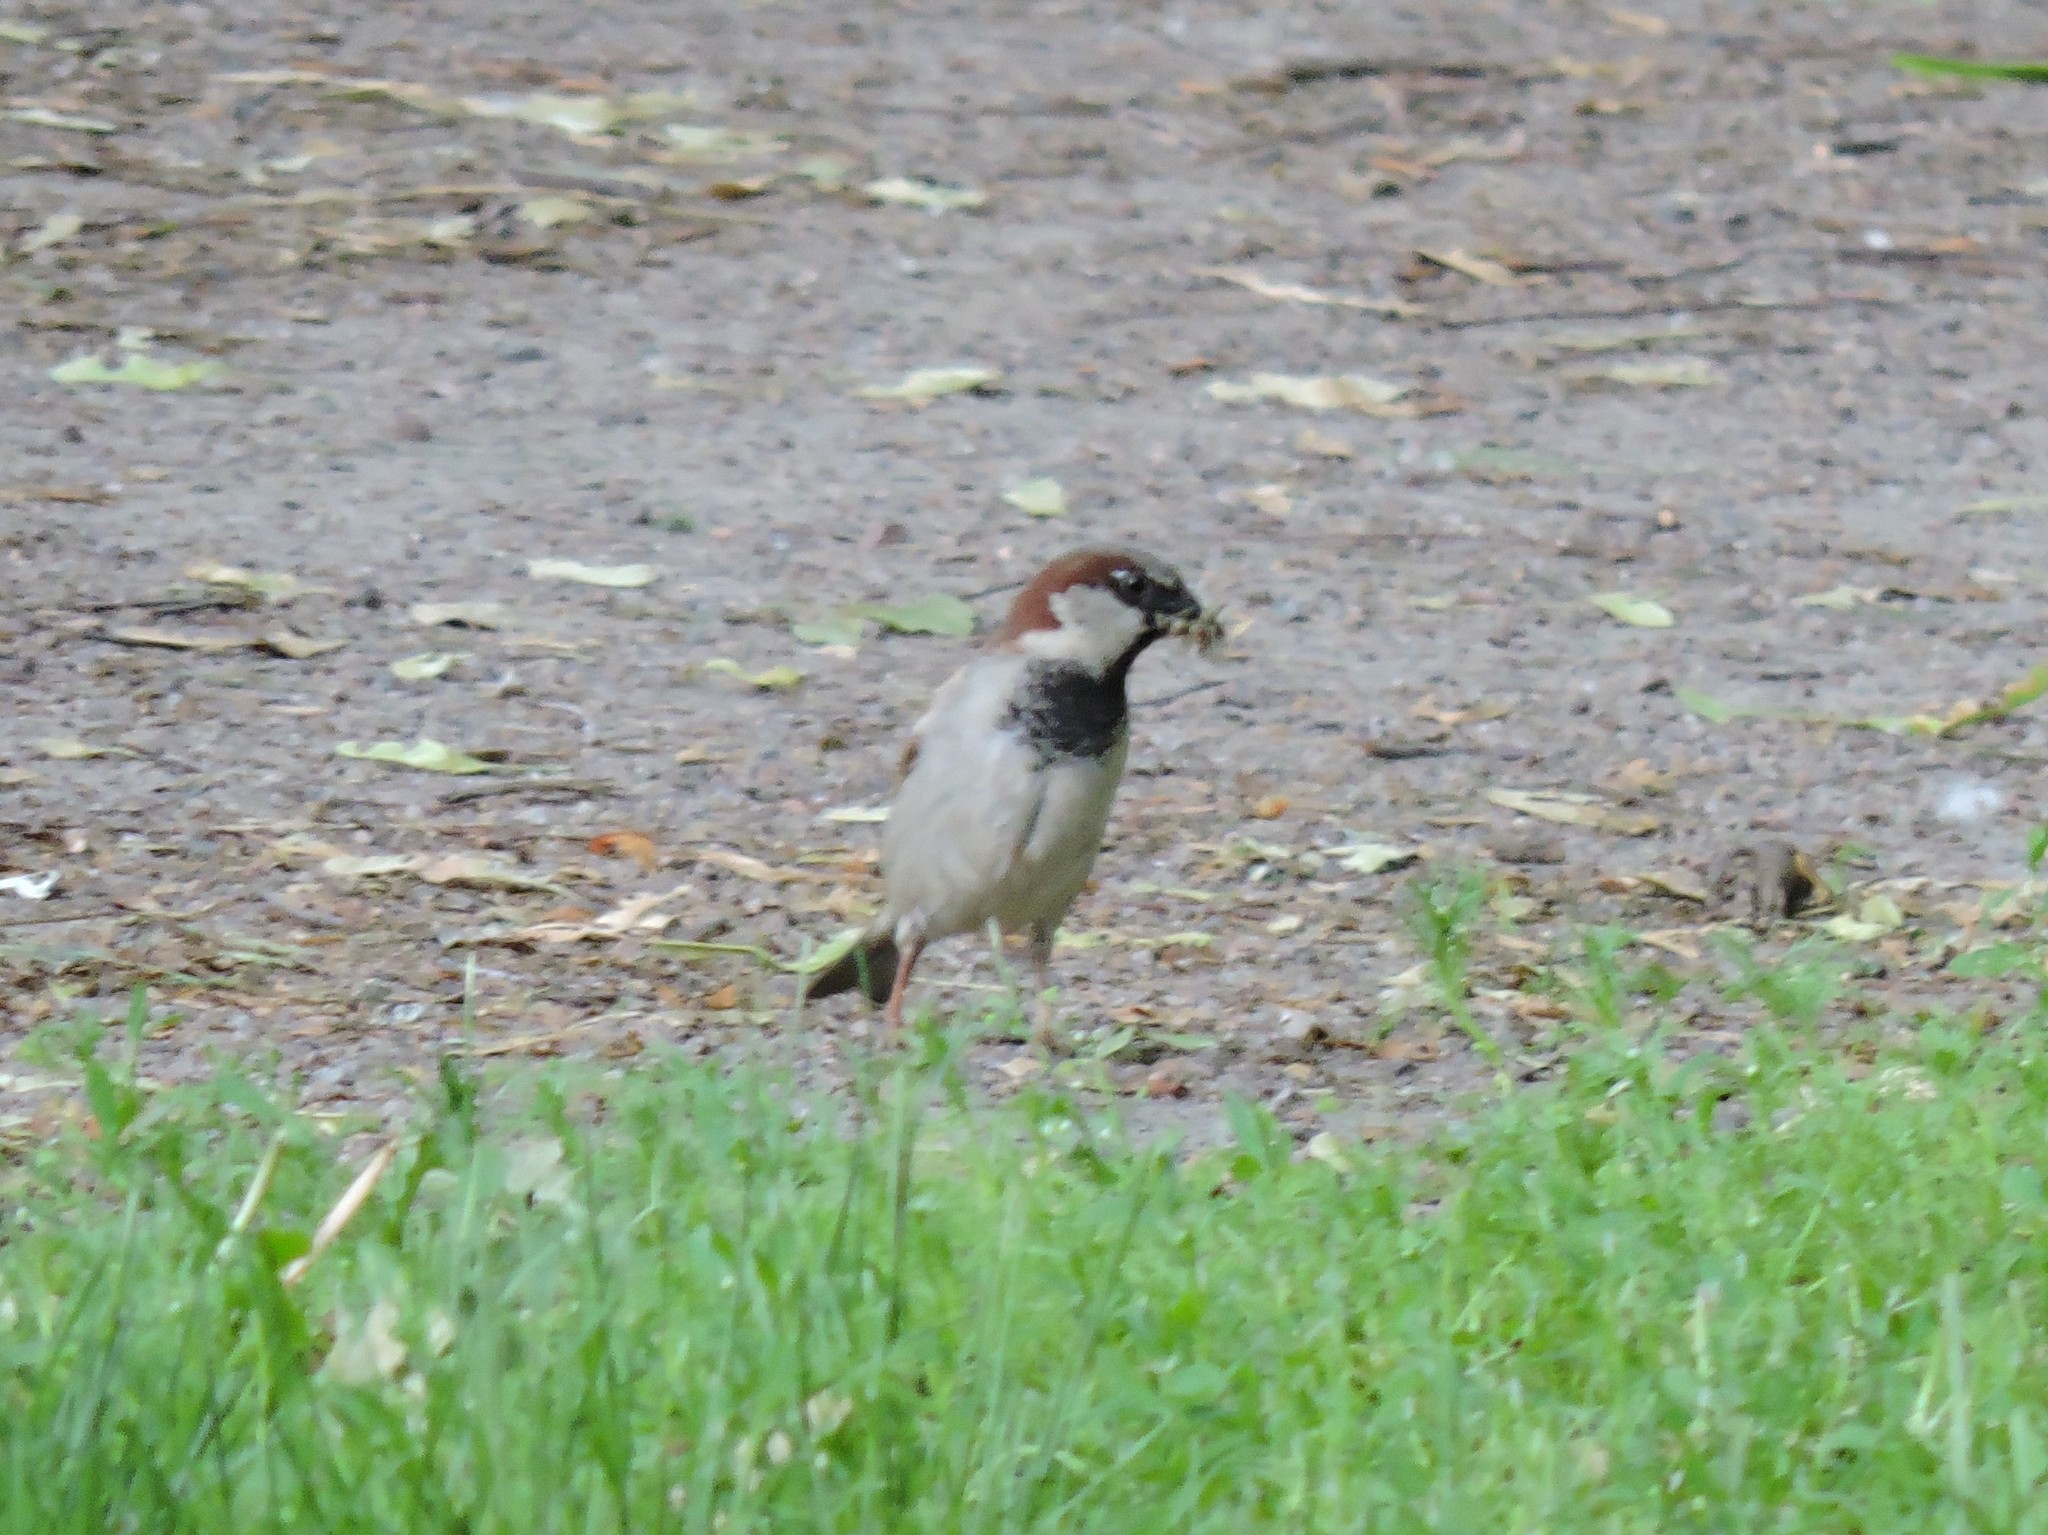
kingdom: Animalia
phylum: Chordata
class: Aves
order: Passeriformes
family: Passeridae
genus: Passer
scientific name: Passer domesticus
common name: House sparrow
